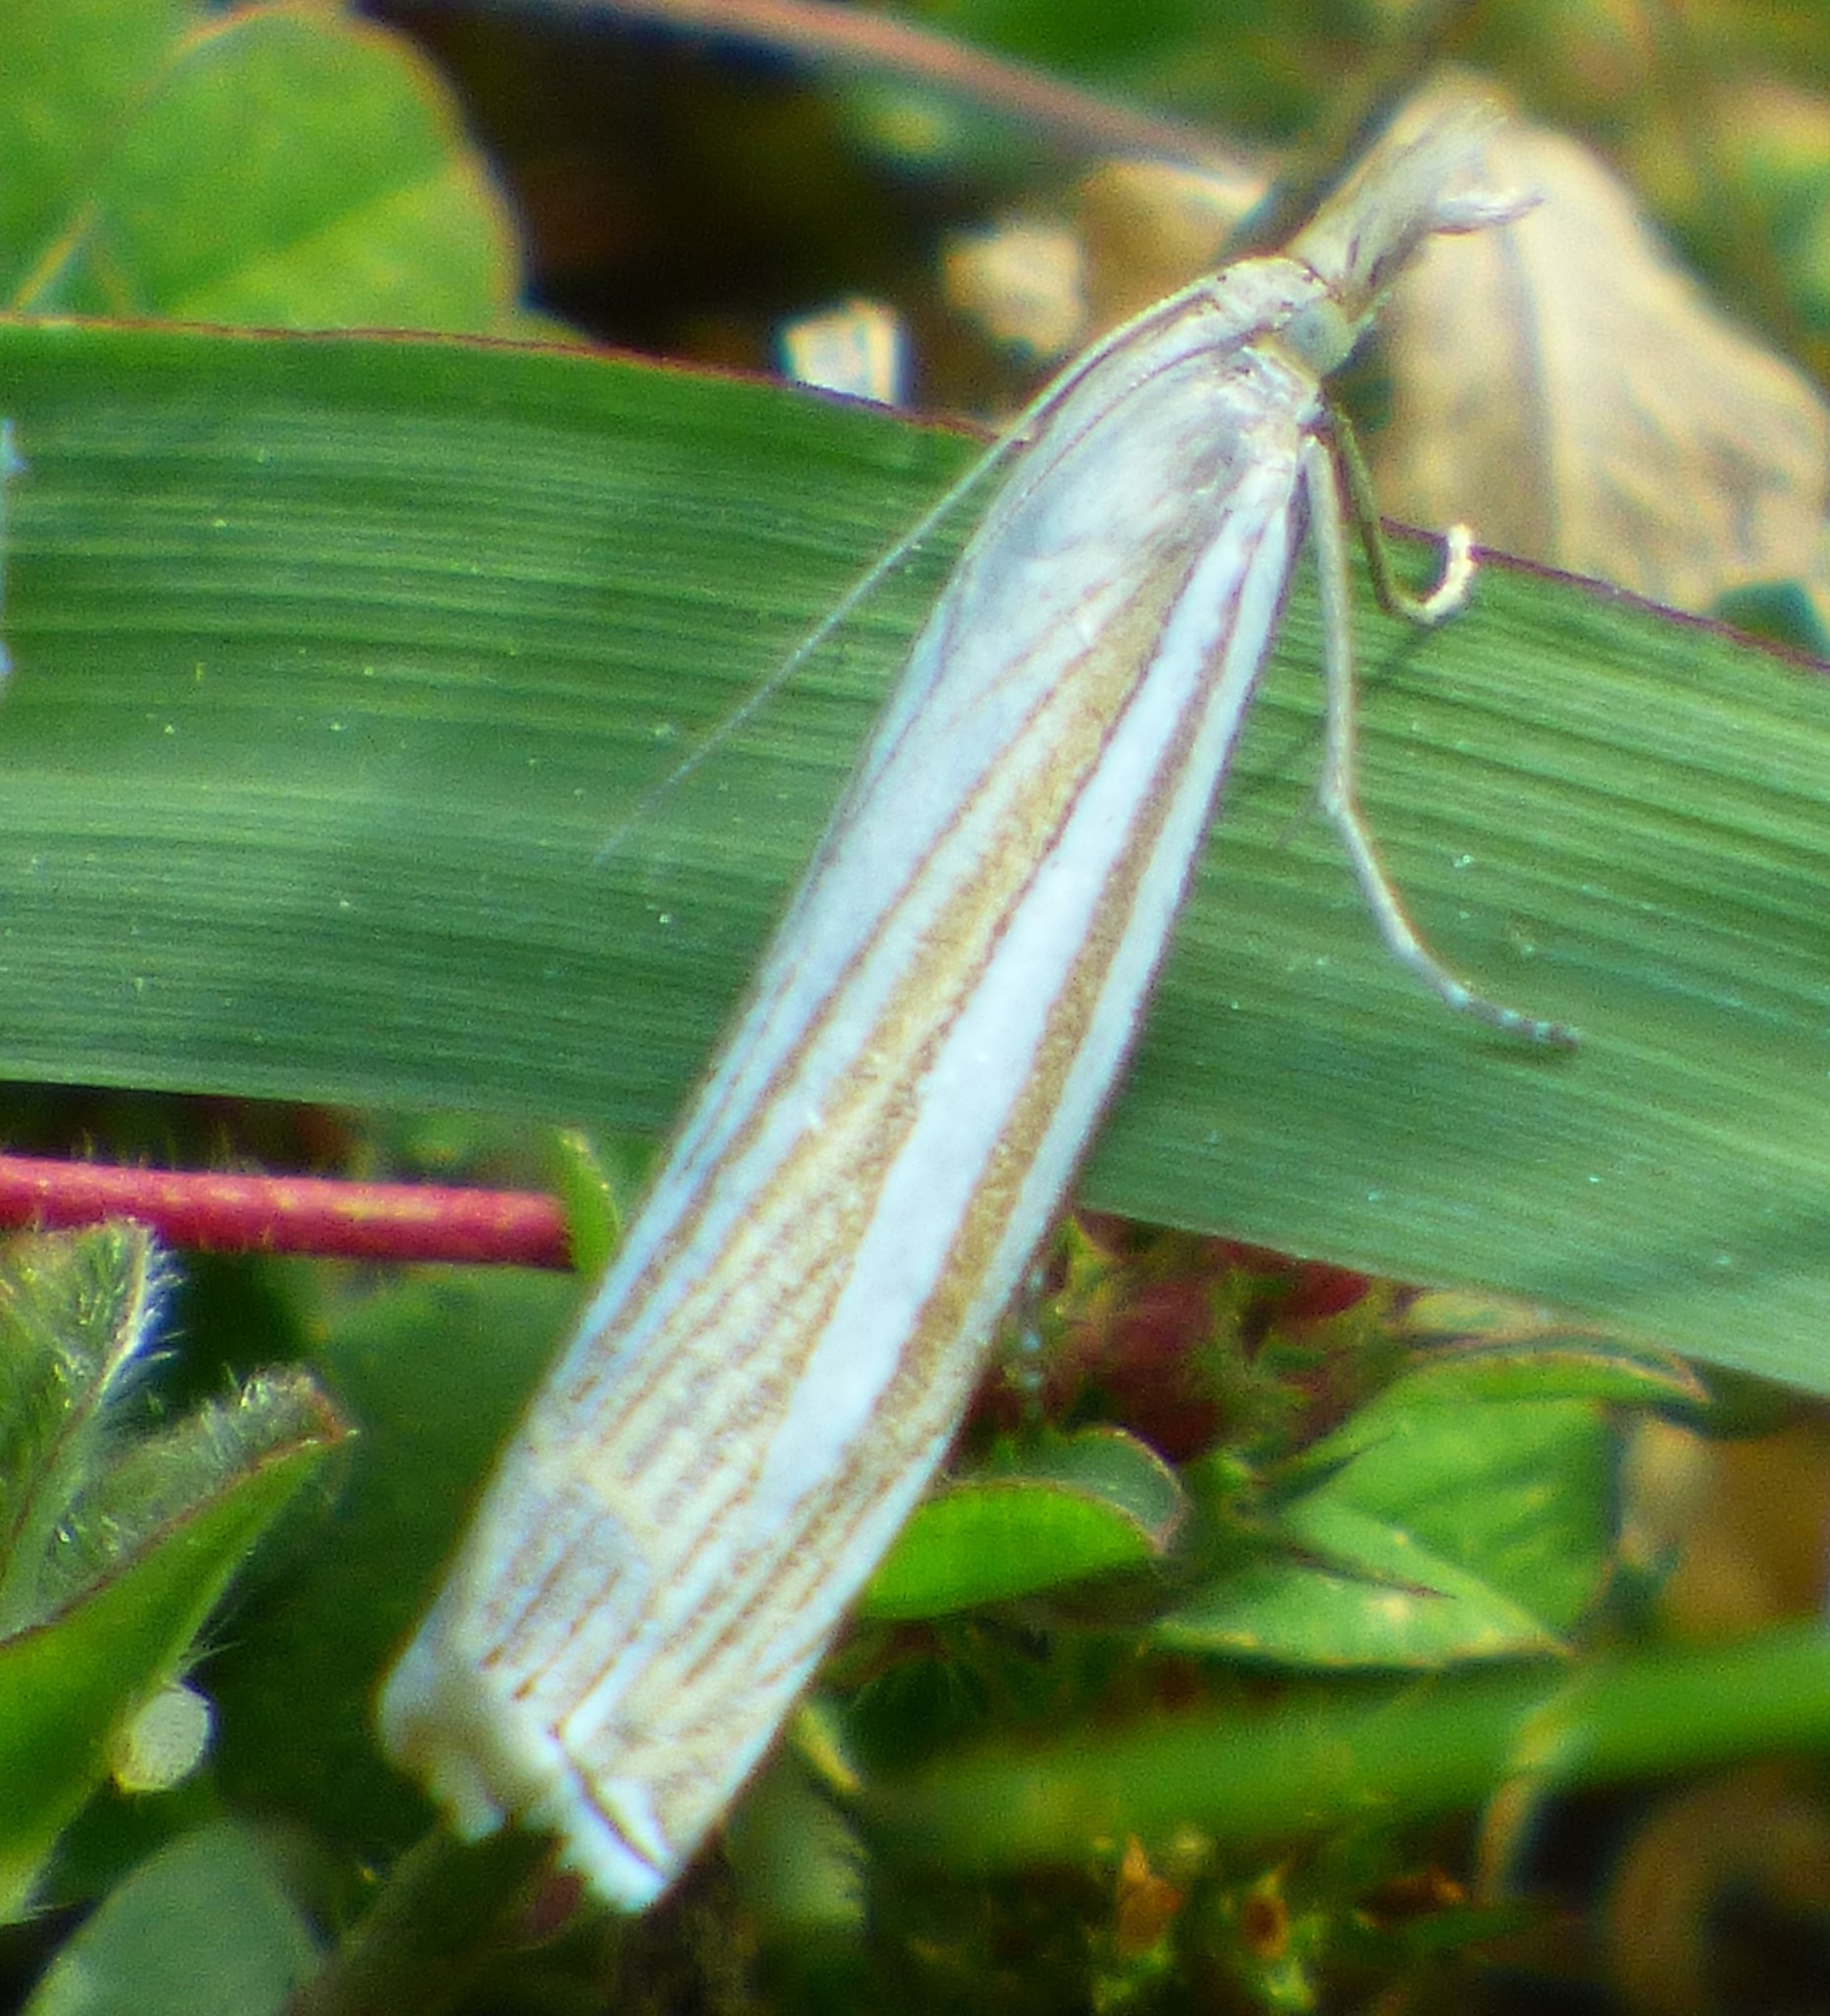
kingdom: Animalia
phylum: Arthropoda
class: Insecta
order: Lepidoptera
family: Crambidae
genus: Crambus
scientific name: Crambus laqueatellus
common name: Eastern grass-veneer
